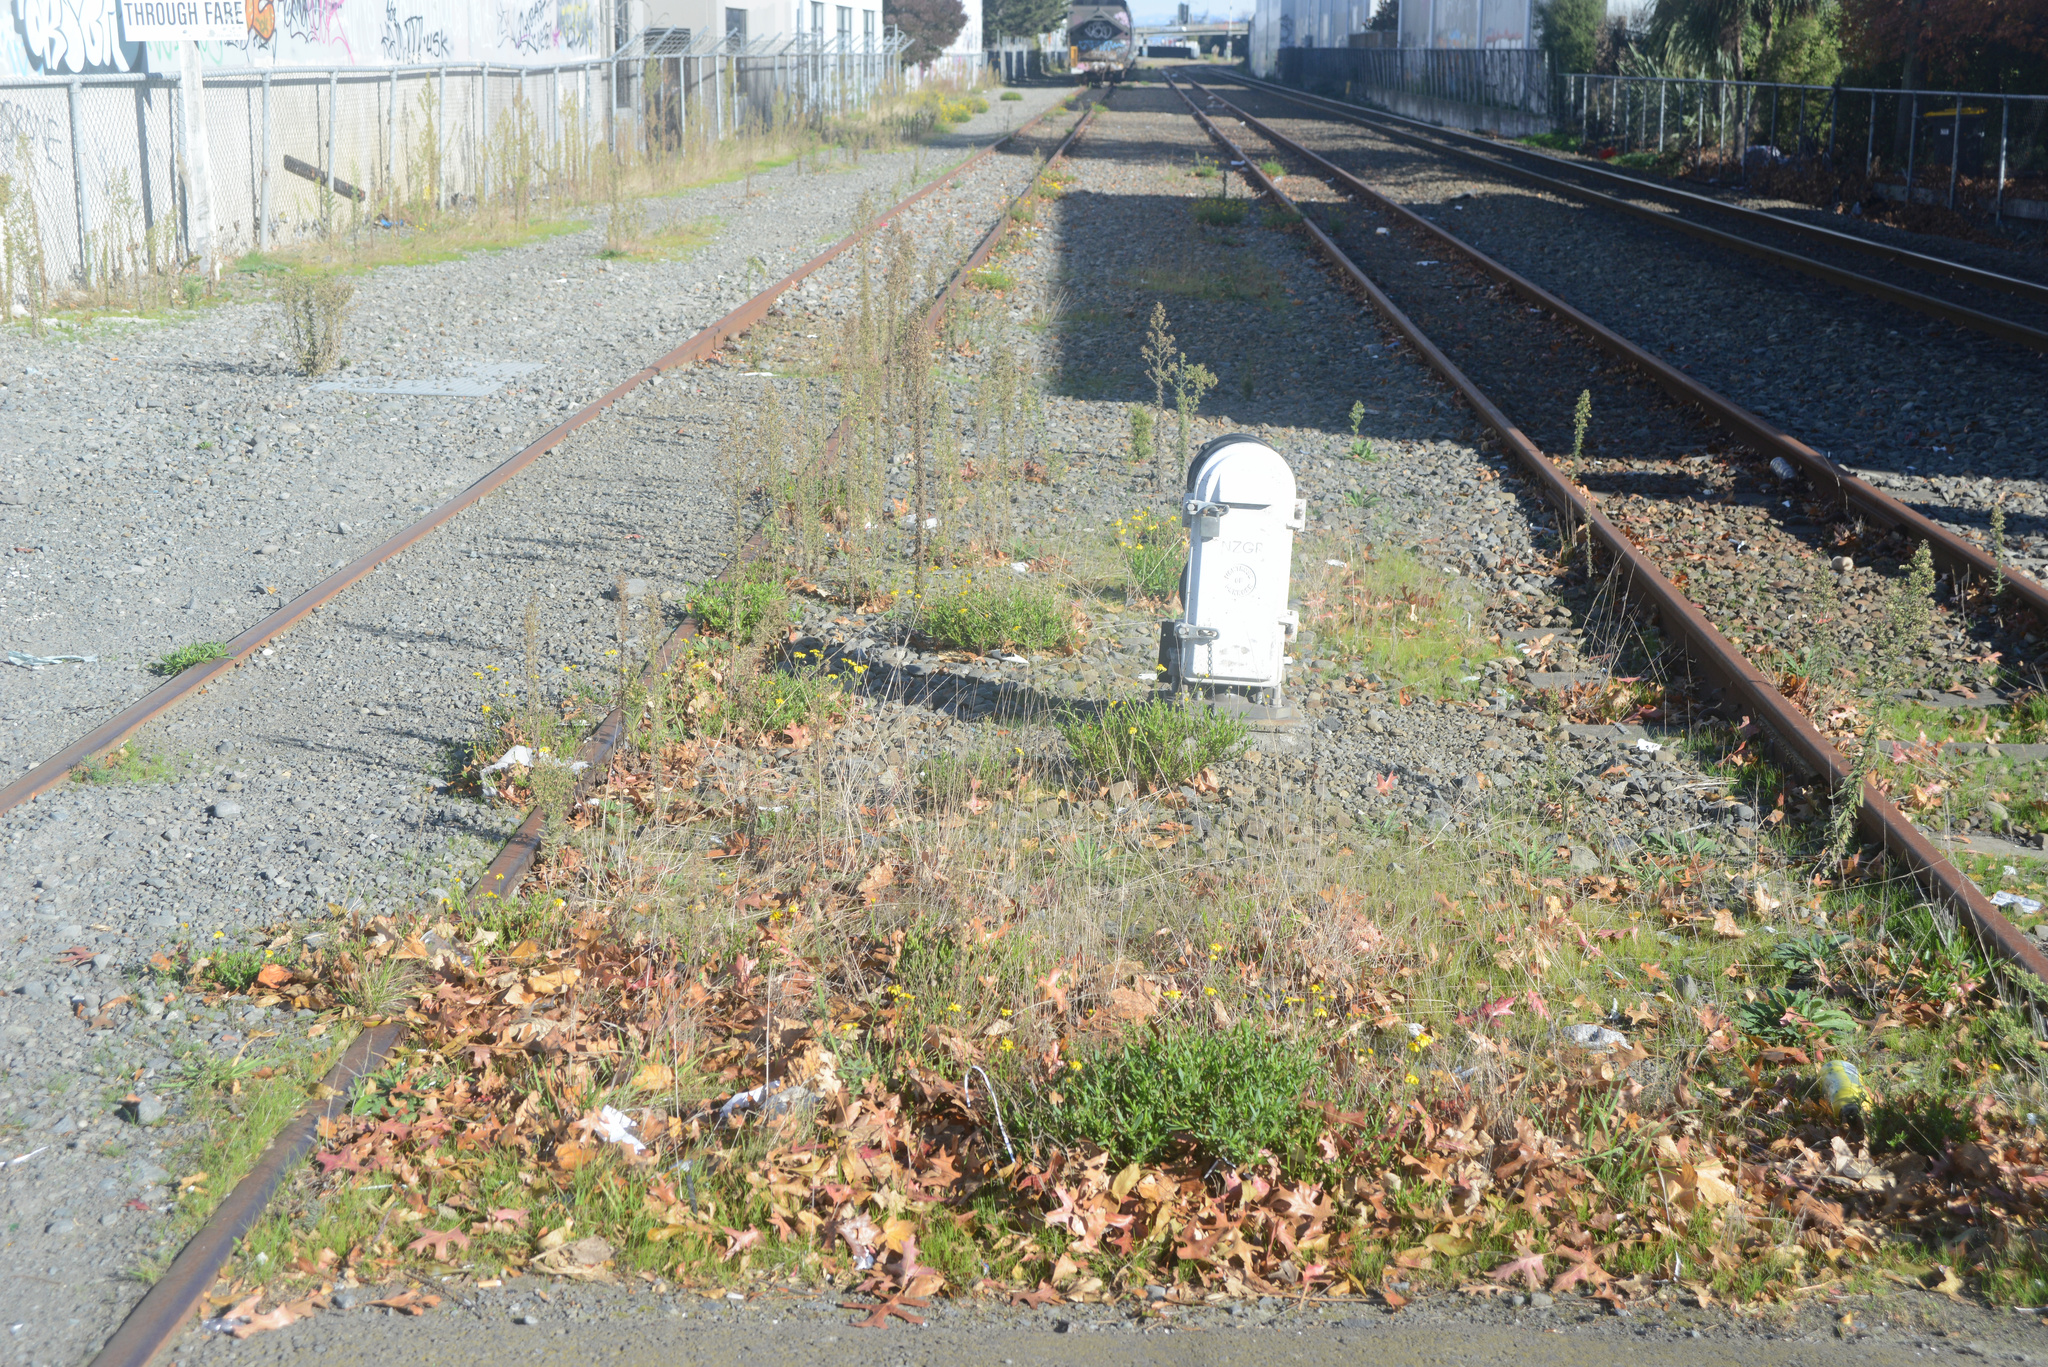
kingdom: Plantae
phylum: Tracheophyta
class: Magnoliopsida
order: Asterales
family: Asteraceae
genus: Senecio
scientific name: Senecio skirrhodon
